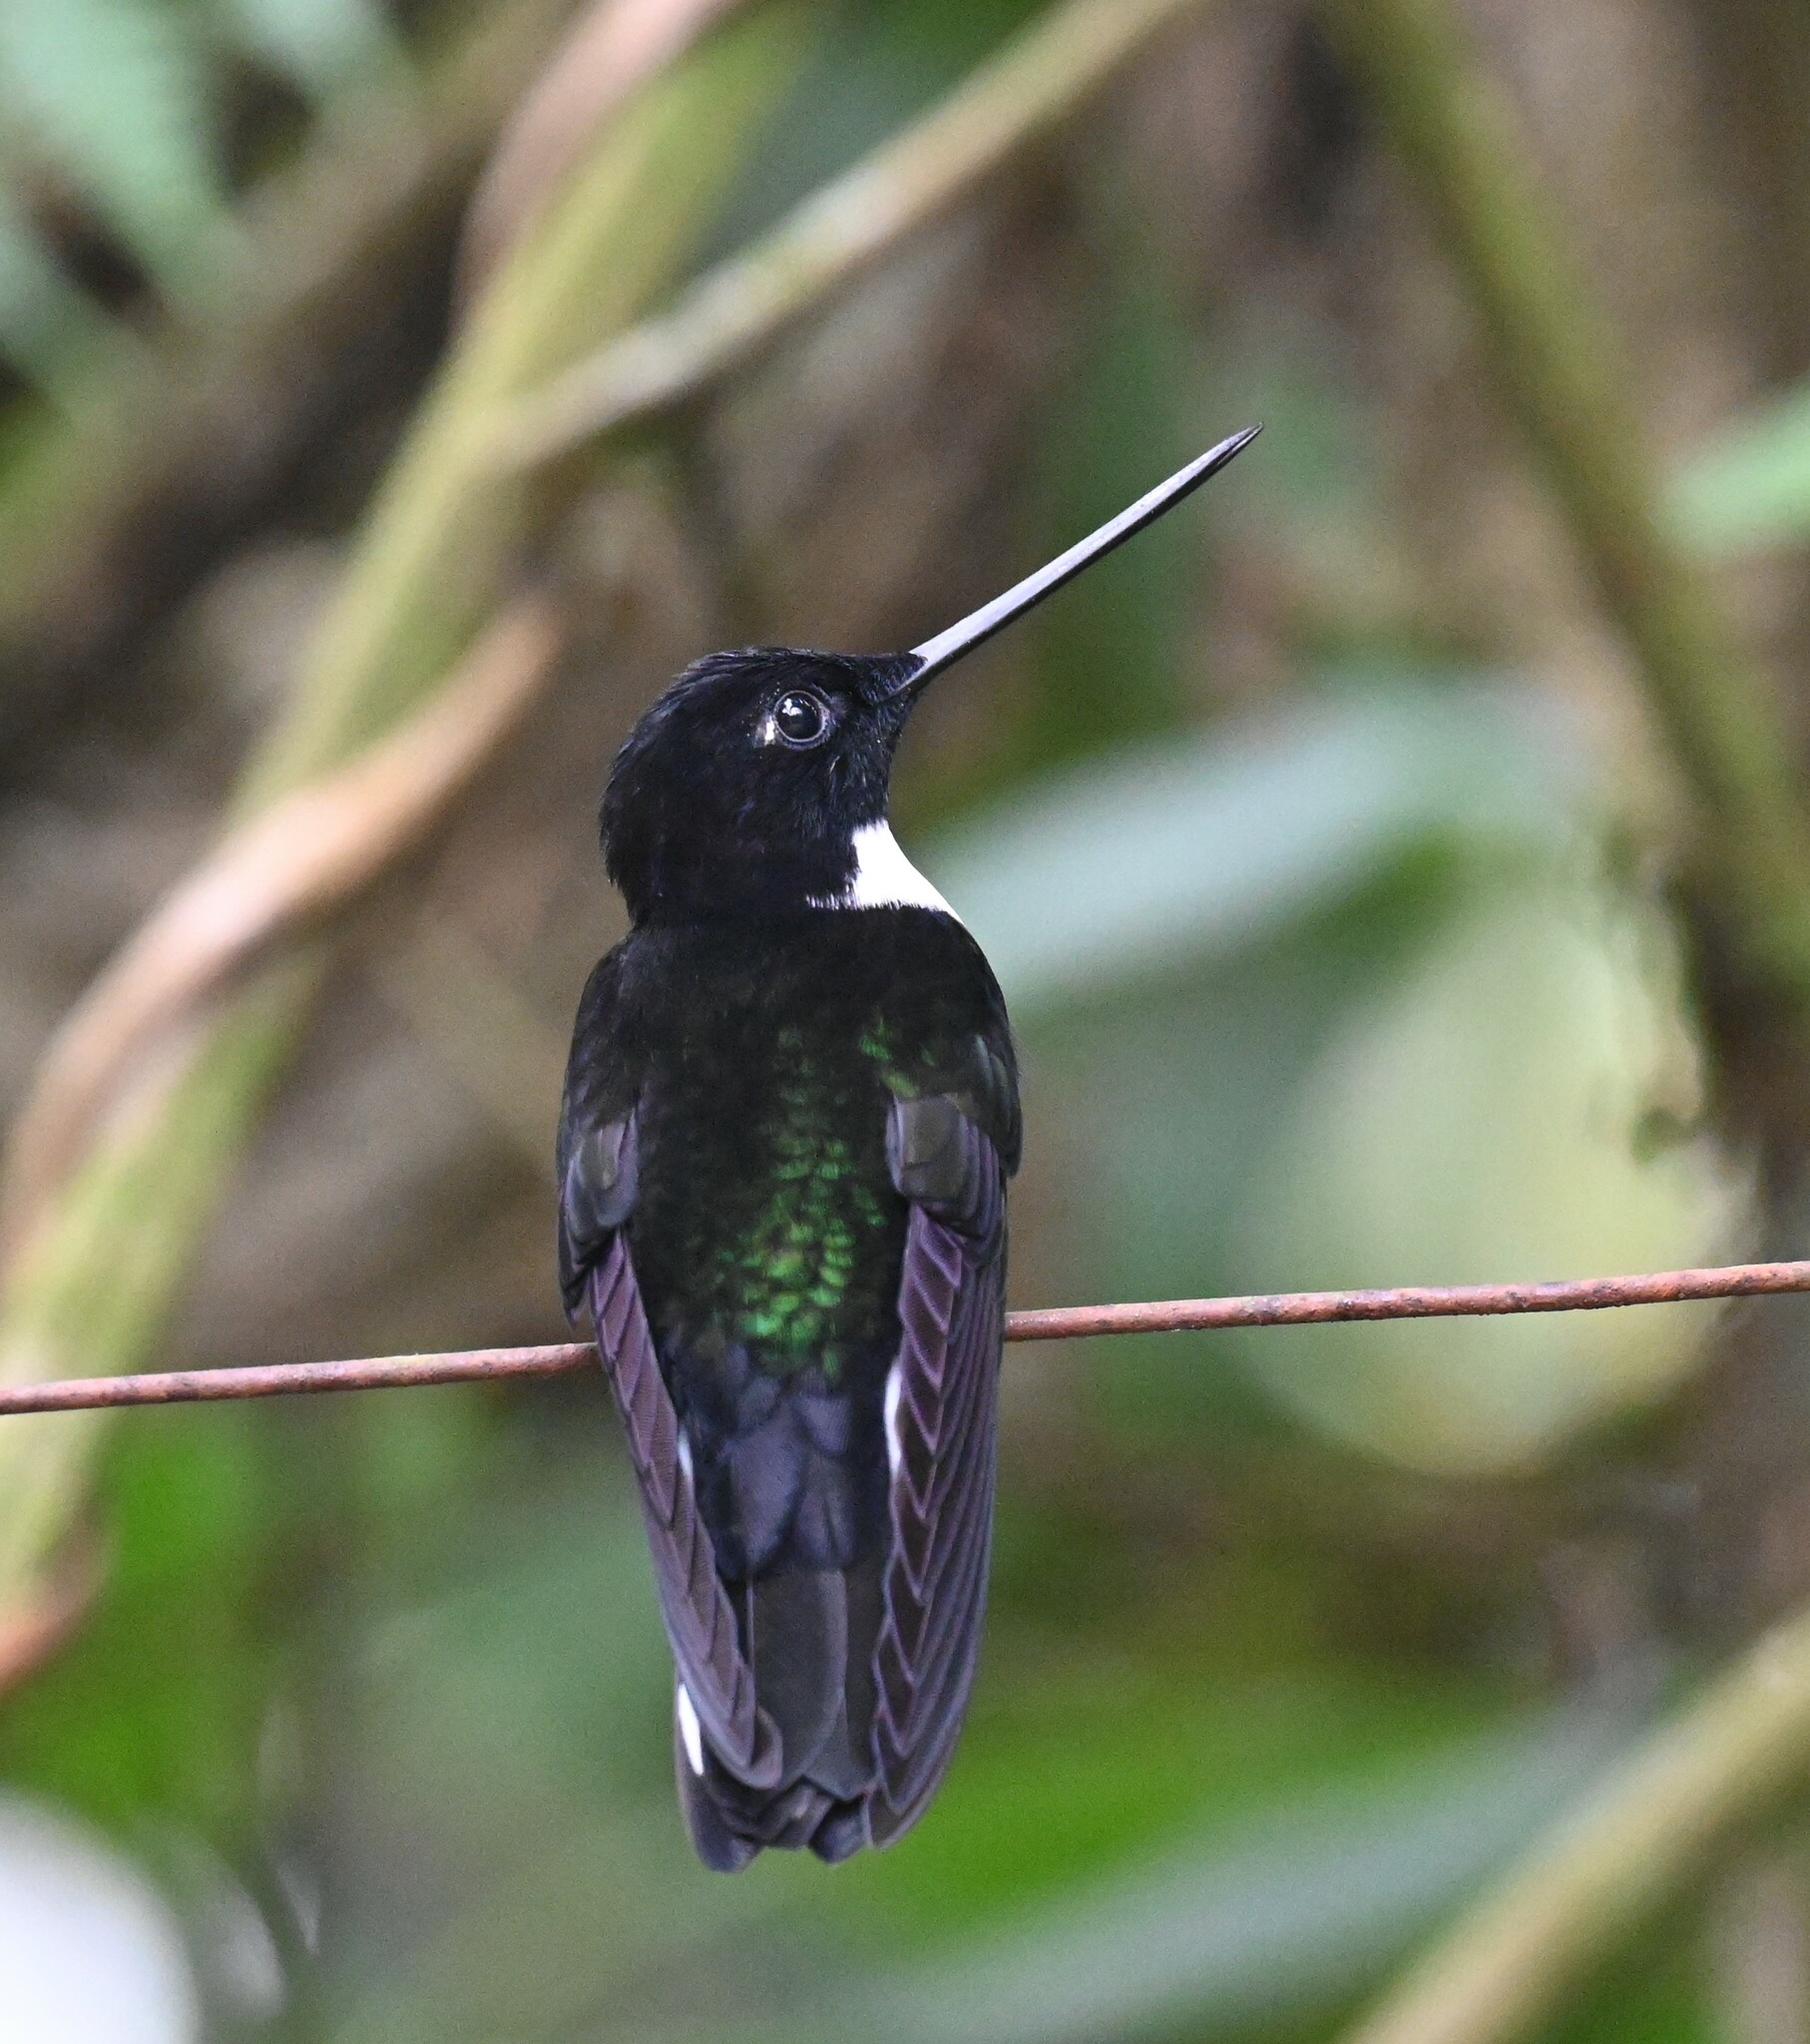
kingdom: Animalia
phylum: Chordata
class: Aves
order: Apodiformes
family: Trochilidae
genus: Coeligena
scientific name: Coeligena torquata
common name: Collared inca
